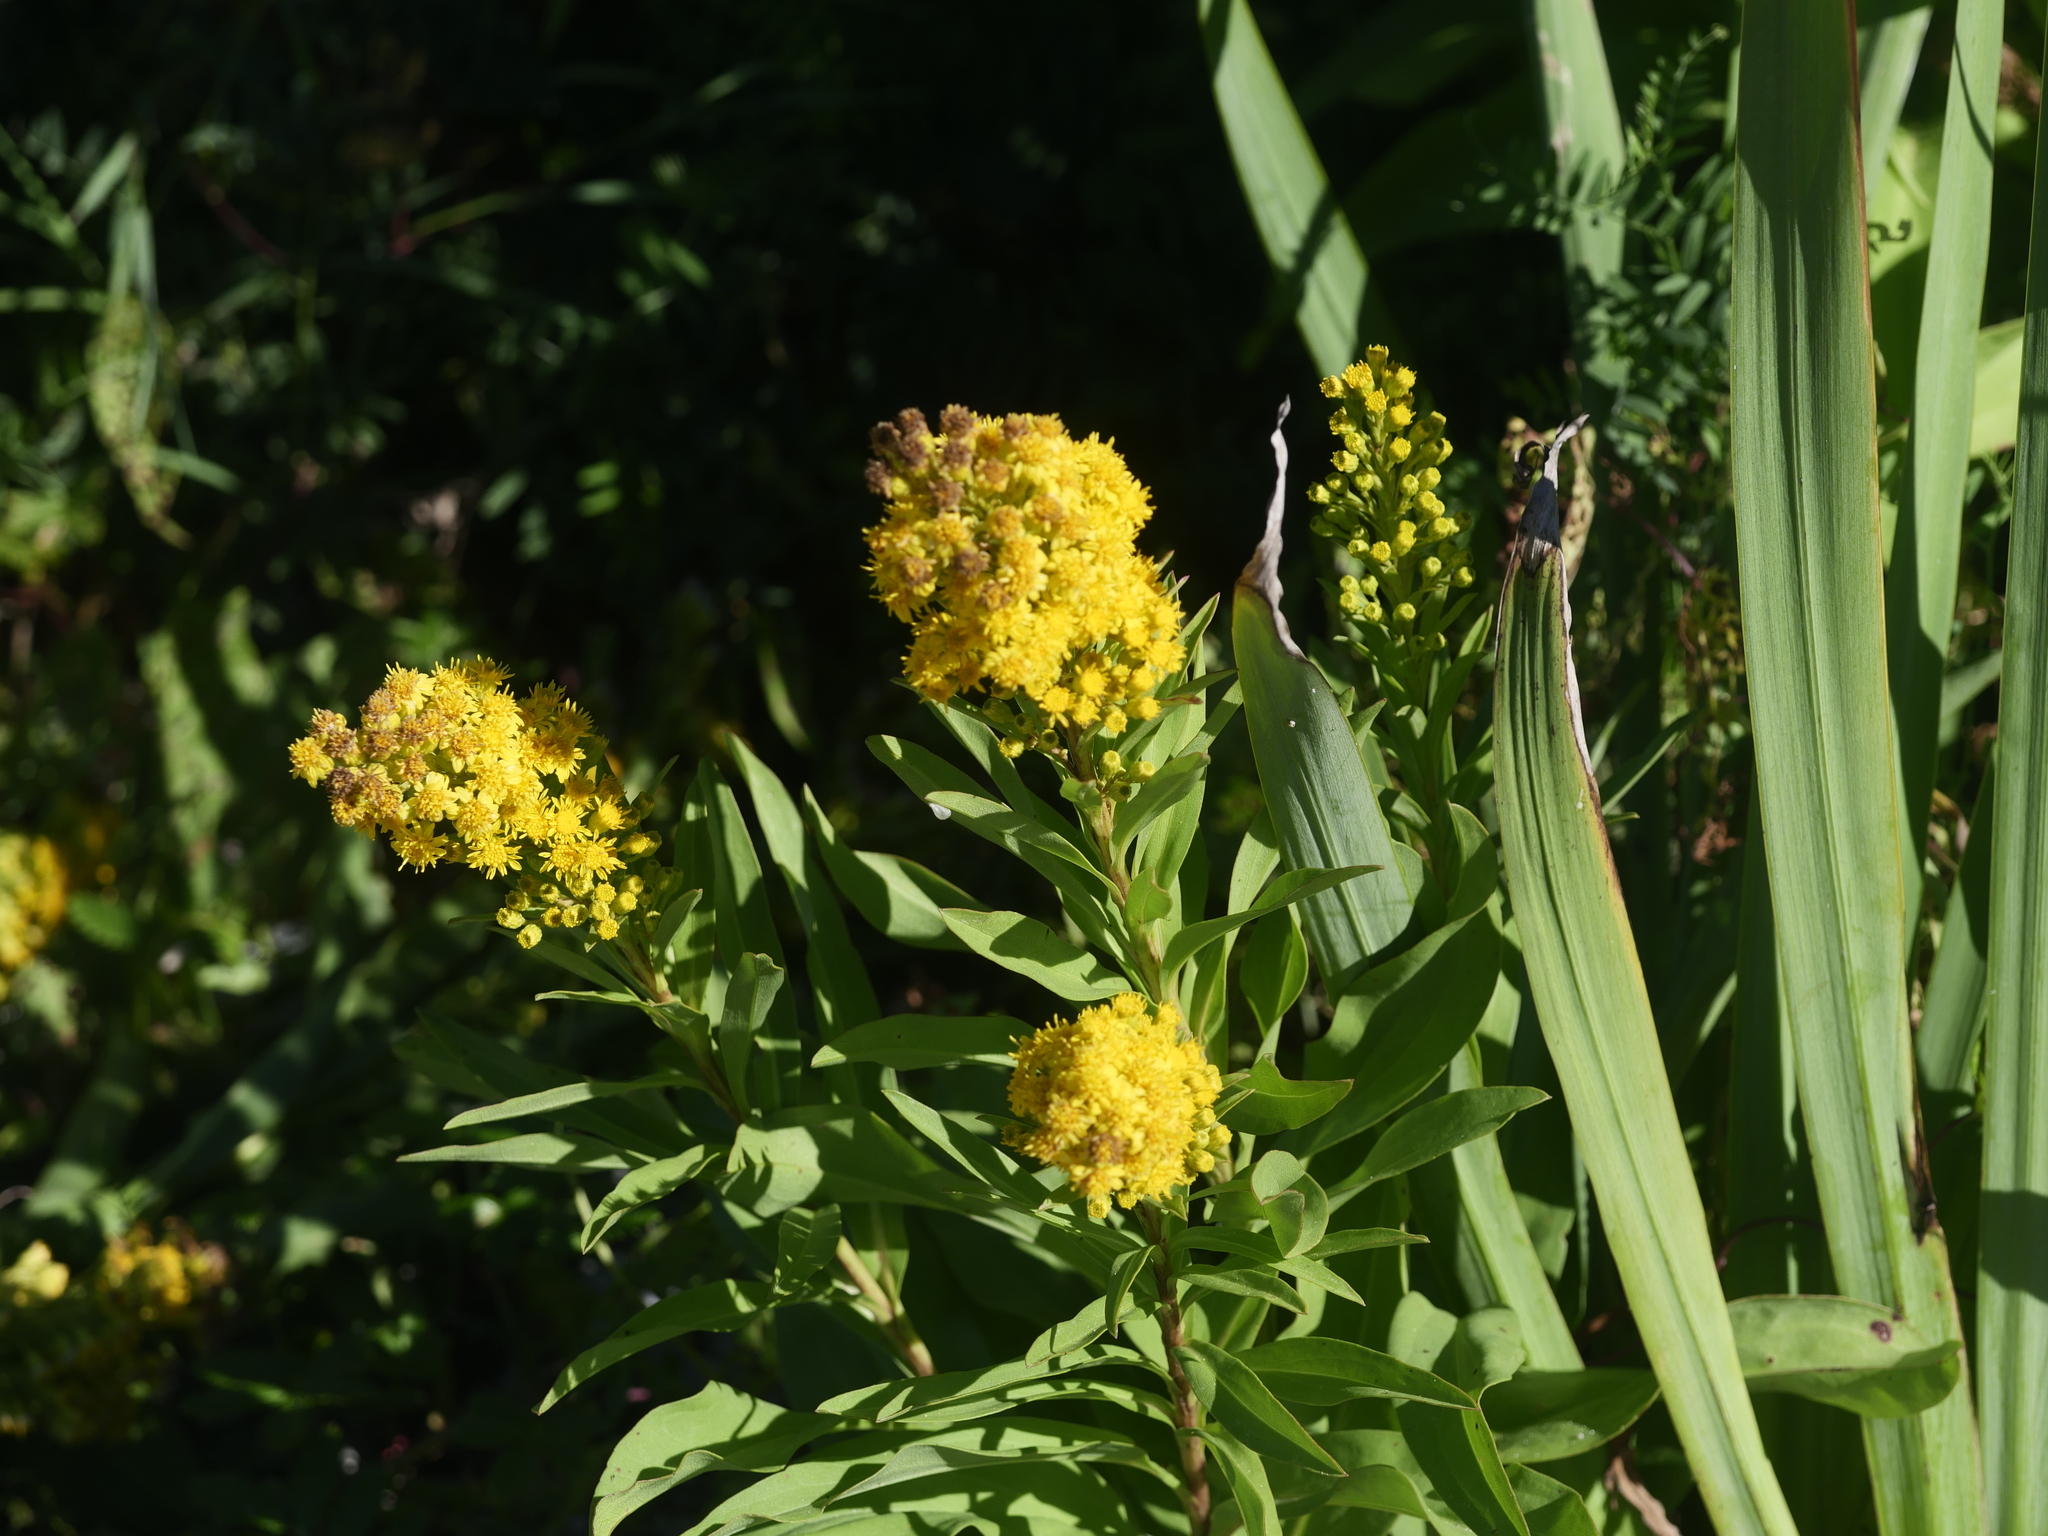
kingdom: Plantae
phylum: Tracheophyta
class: Magnoliopsida
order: Asterales
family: Asteraceae
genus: Solidago
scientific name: Solidago sempervirens
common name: Salt-marsh goldenrod
